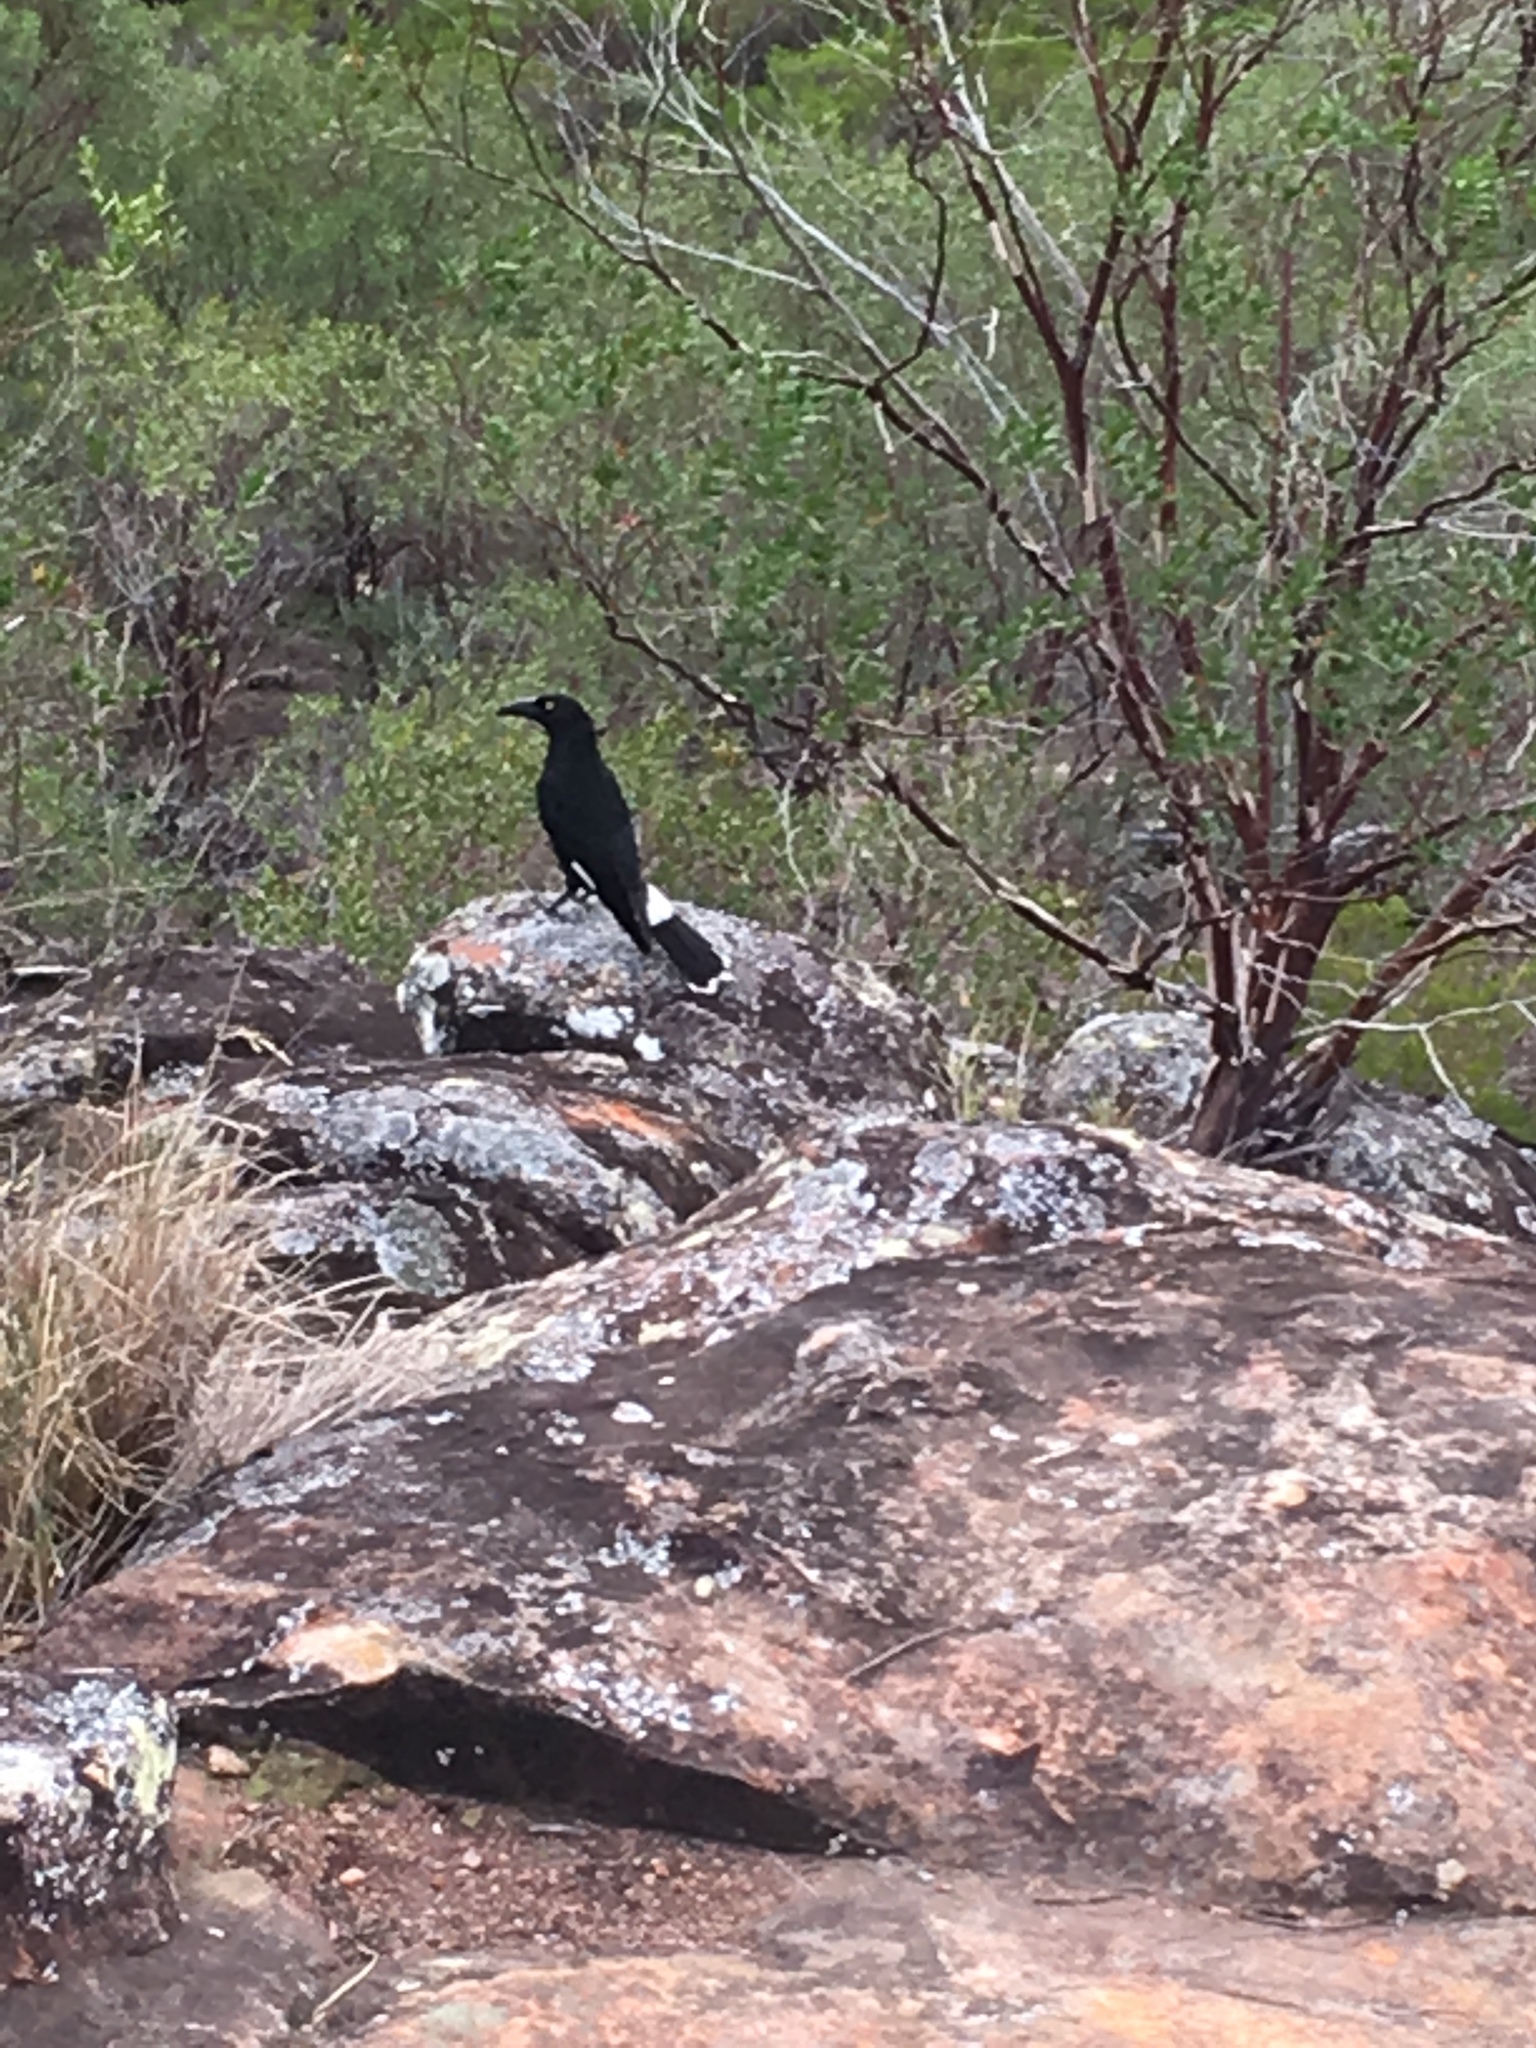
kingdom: Animalia
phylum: Chordata
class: Aves
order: Passeriformes
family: Cracticidae
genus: Strepera
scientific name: Strepera graculina
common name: Pied currawong
